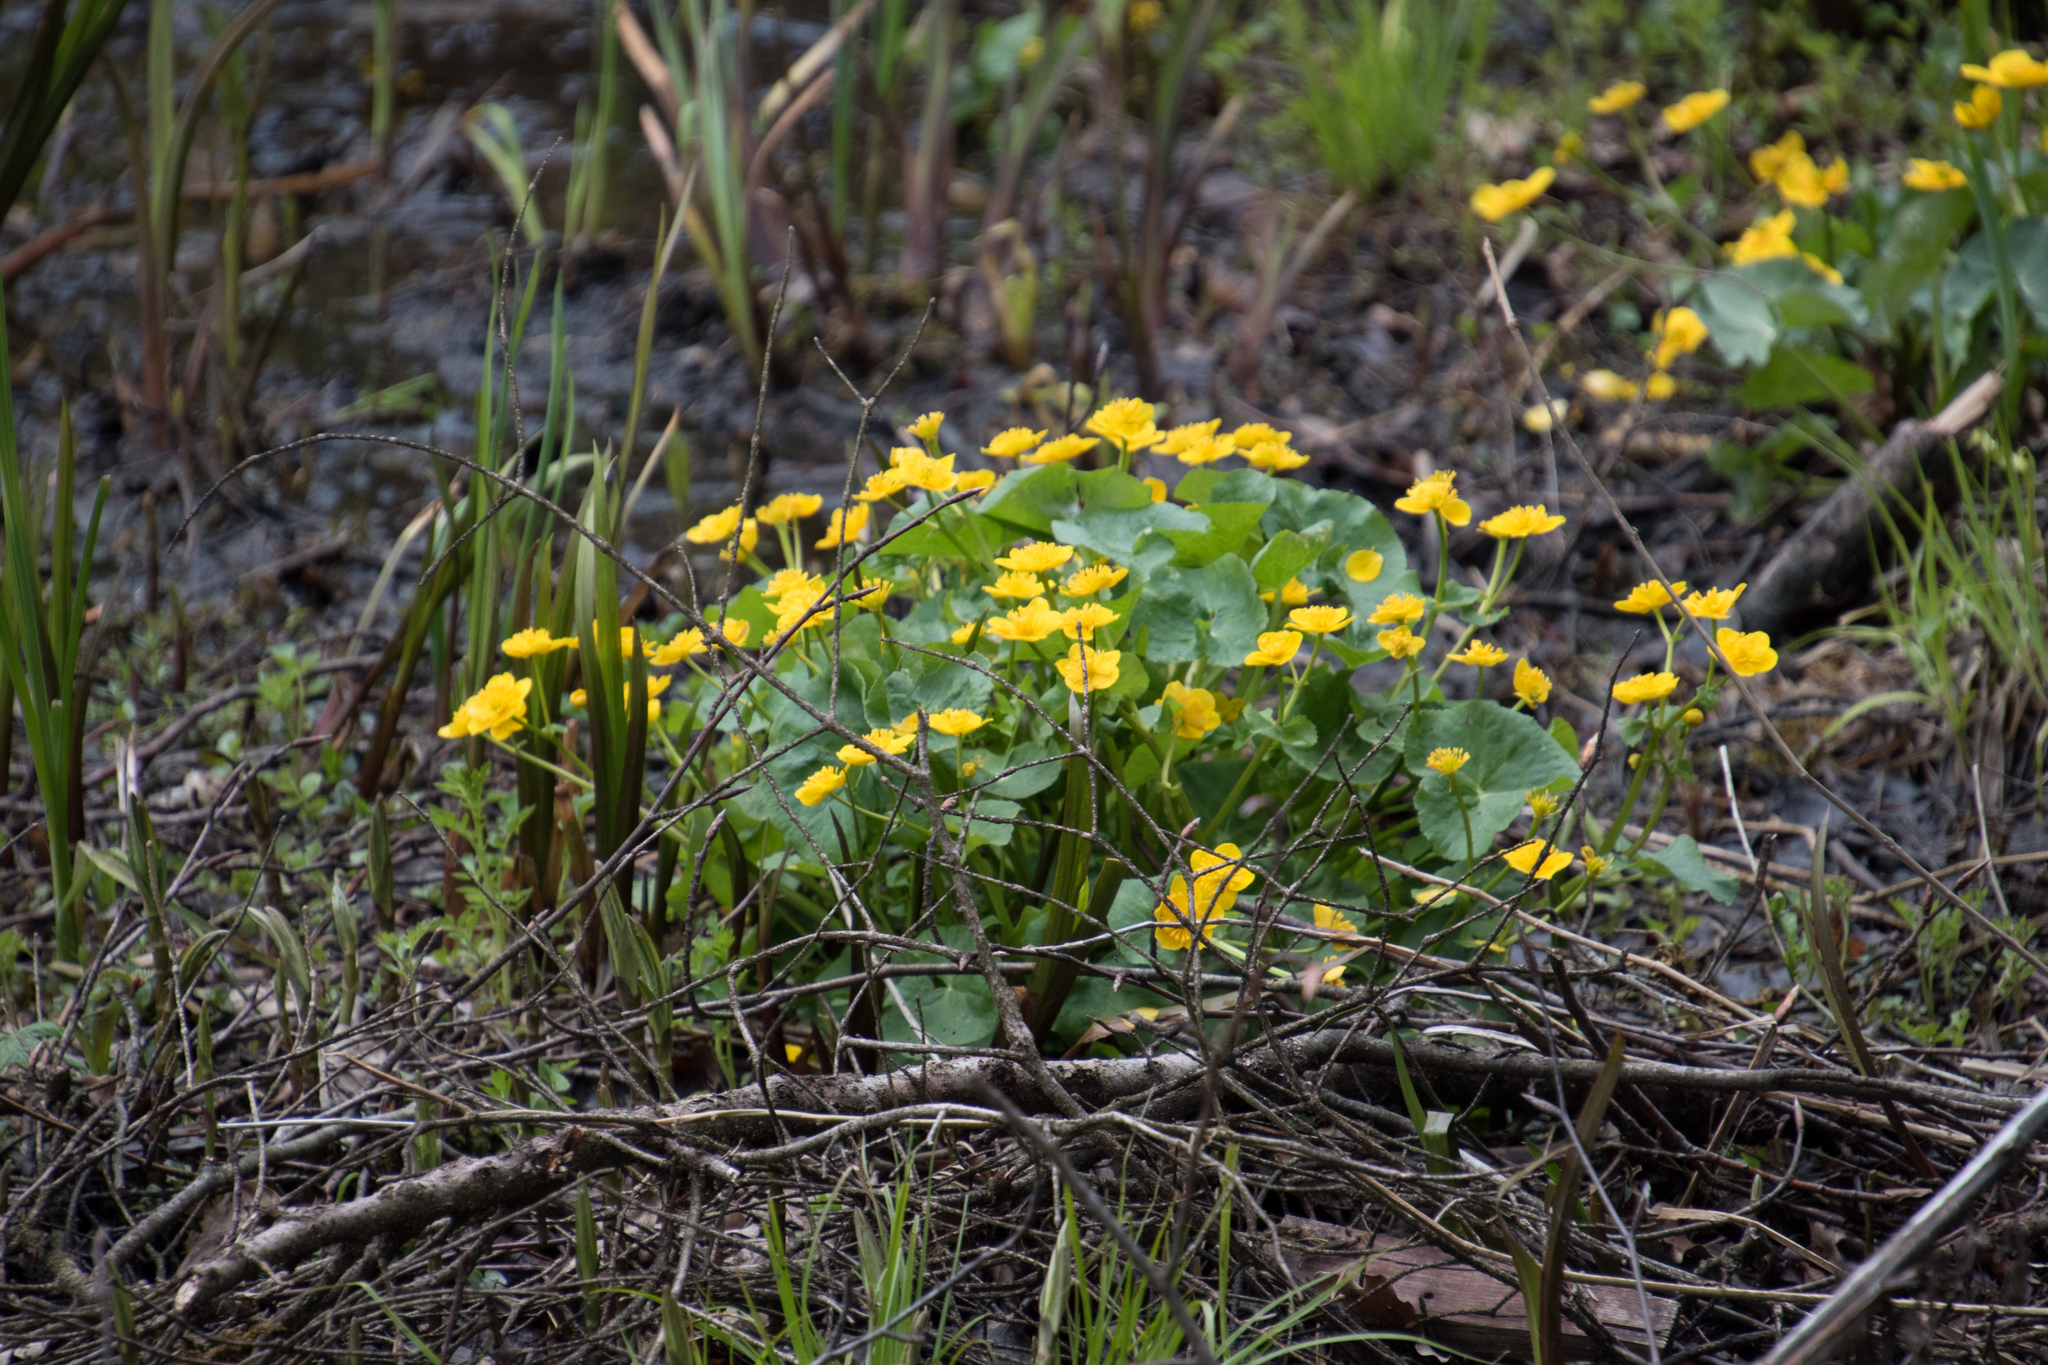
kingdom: Plantae
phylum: Tracheophyta
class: Magnoliopsida
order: Ranunculales
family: Ranunculaceae
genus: Caltha
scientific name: Caltha palustris
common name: Marsh marigold
